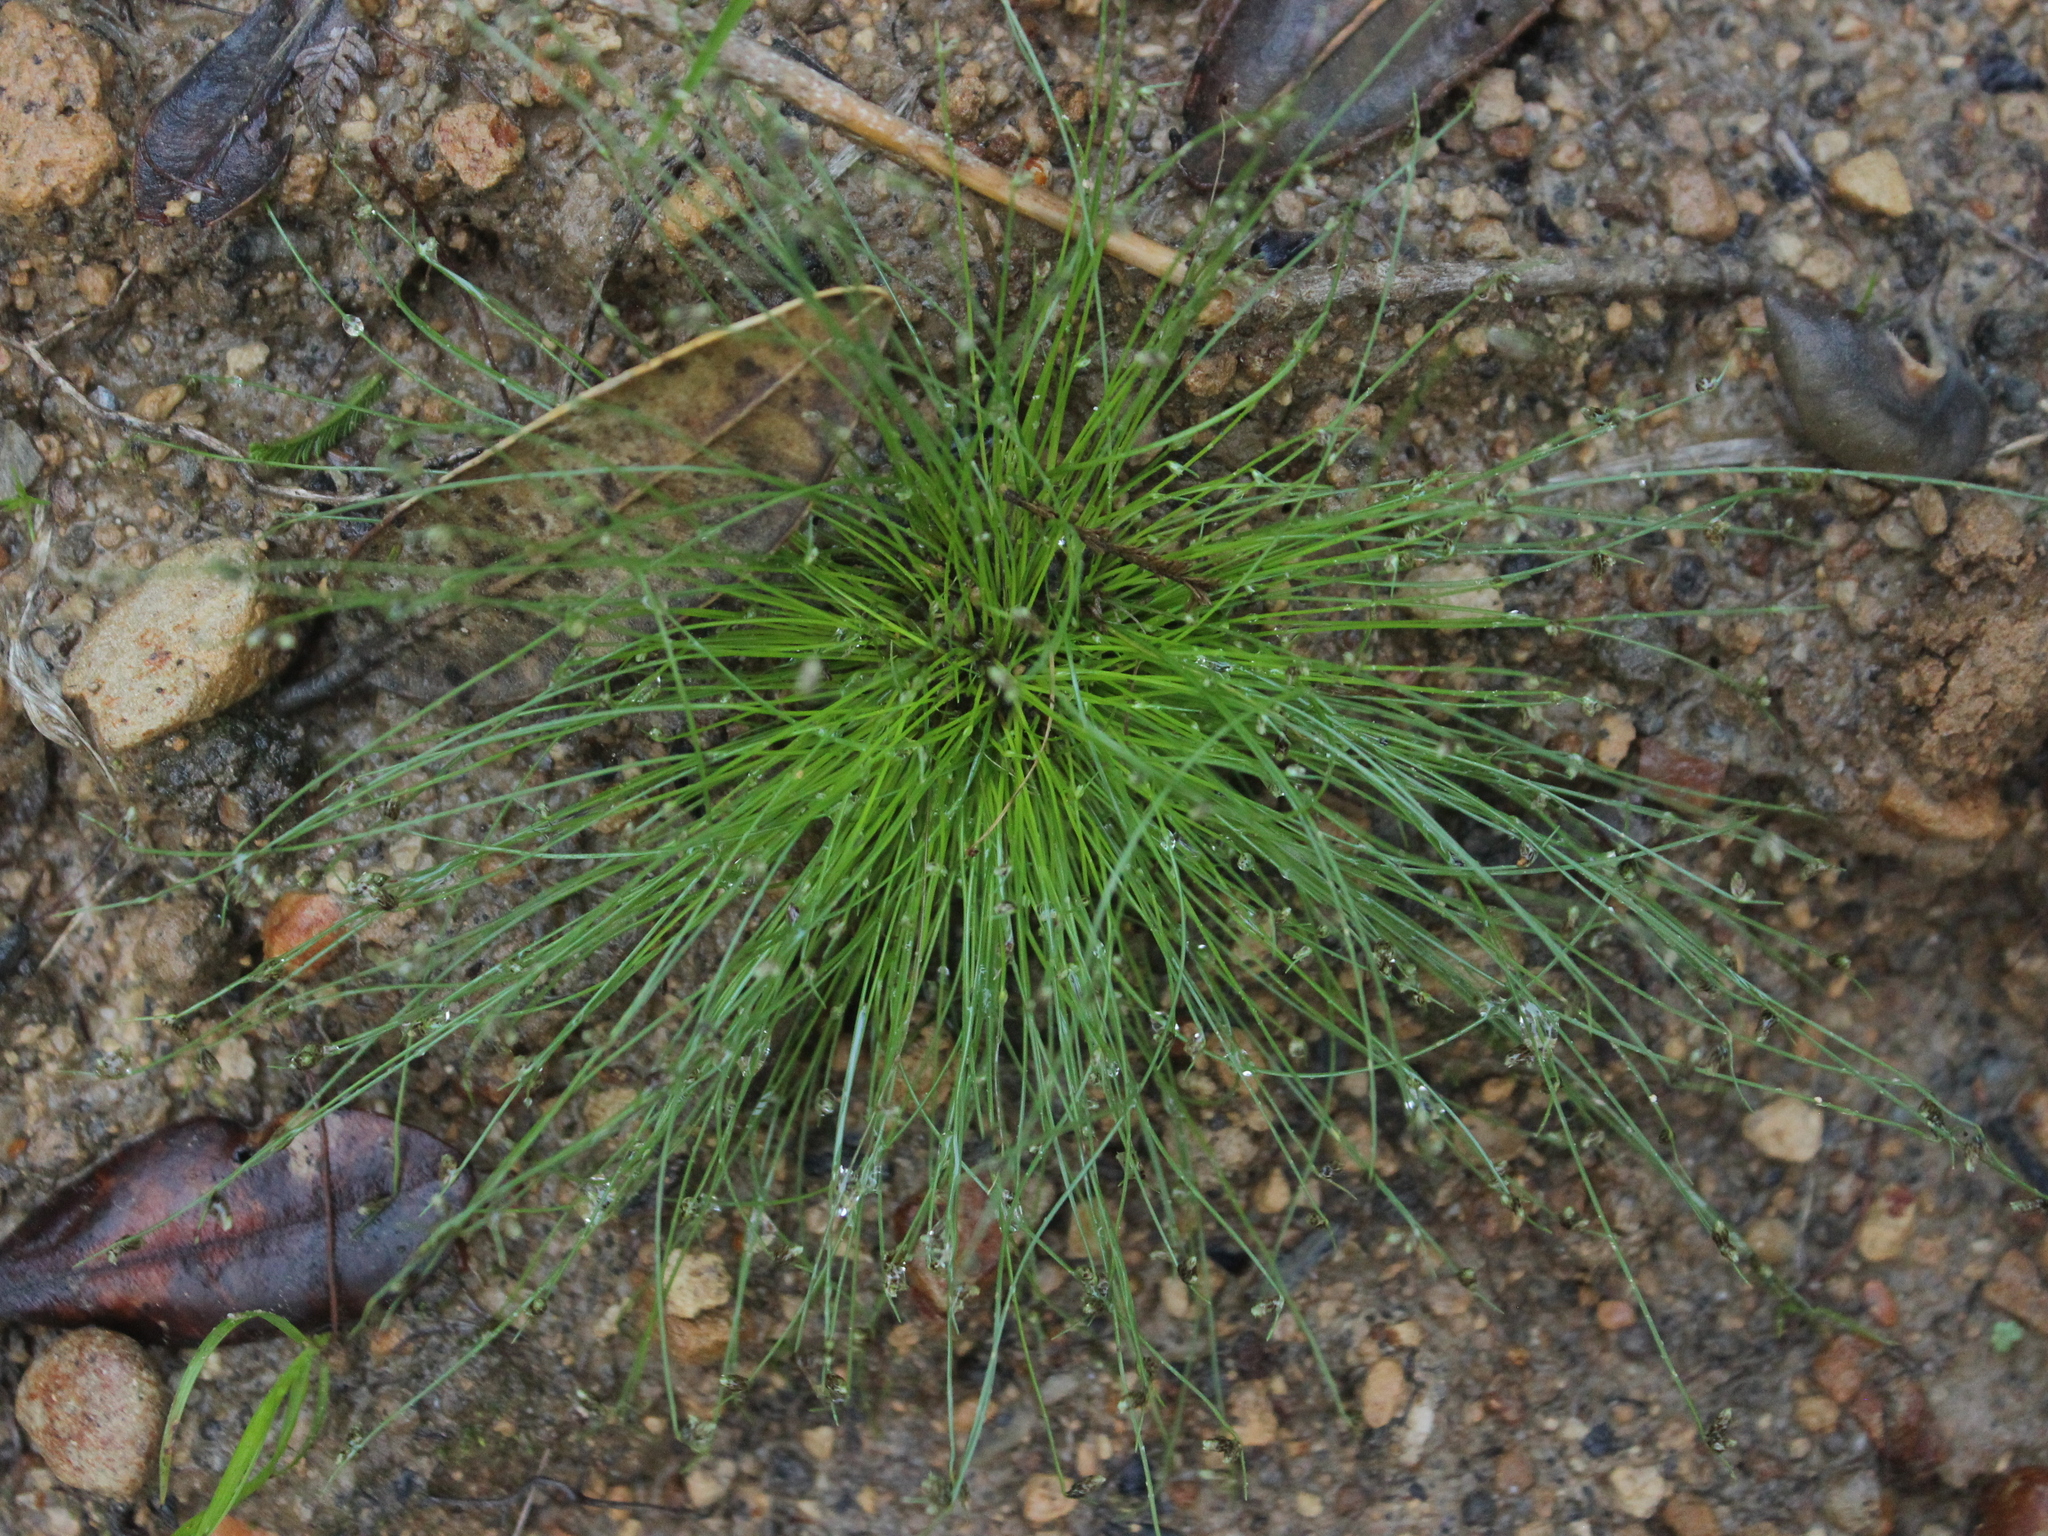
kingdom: Plantae
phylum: Tracheophyta
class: Liliopsida
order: Poales
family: Cyperaceae
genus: Isolepis
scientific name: Isolepis cernua
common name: Slender club-rush
